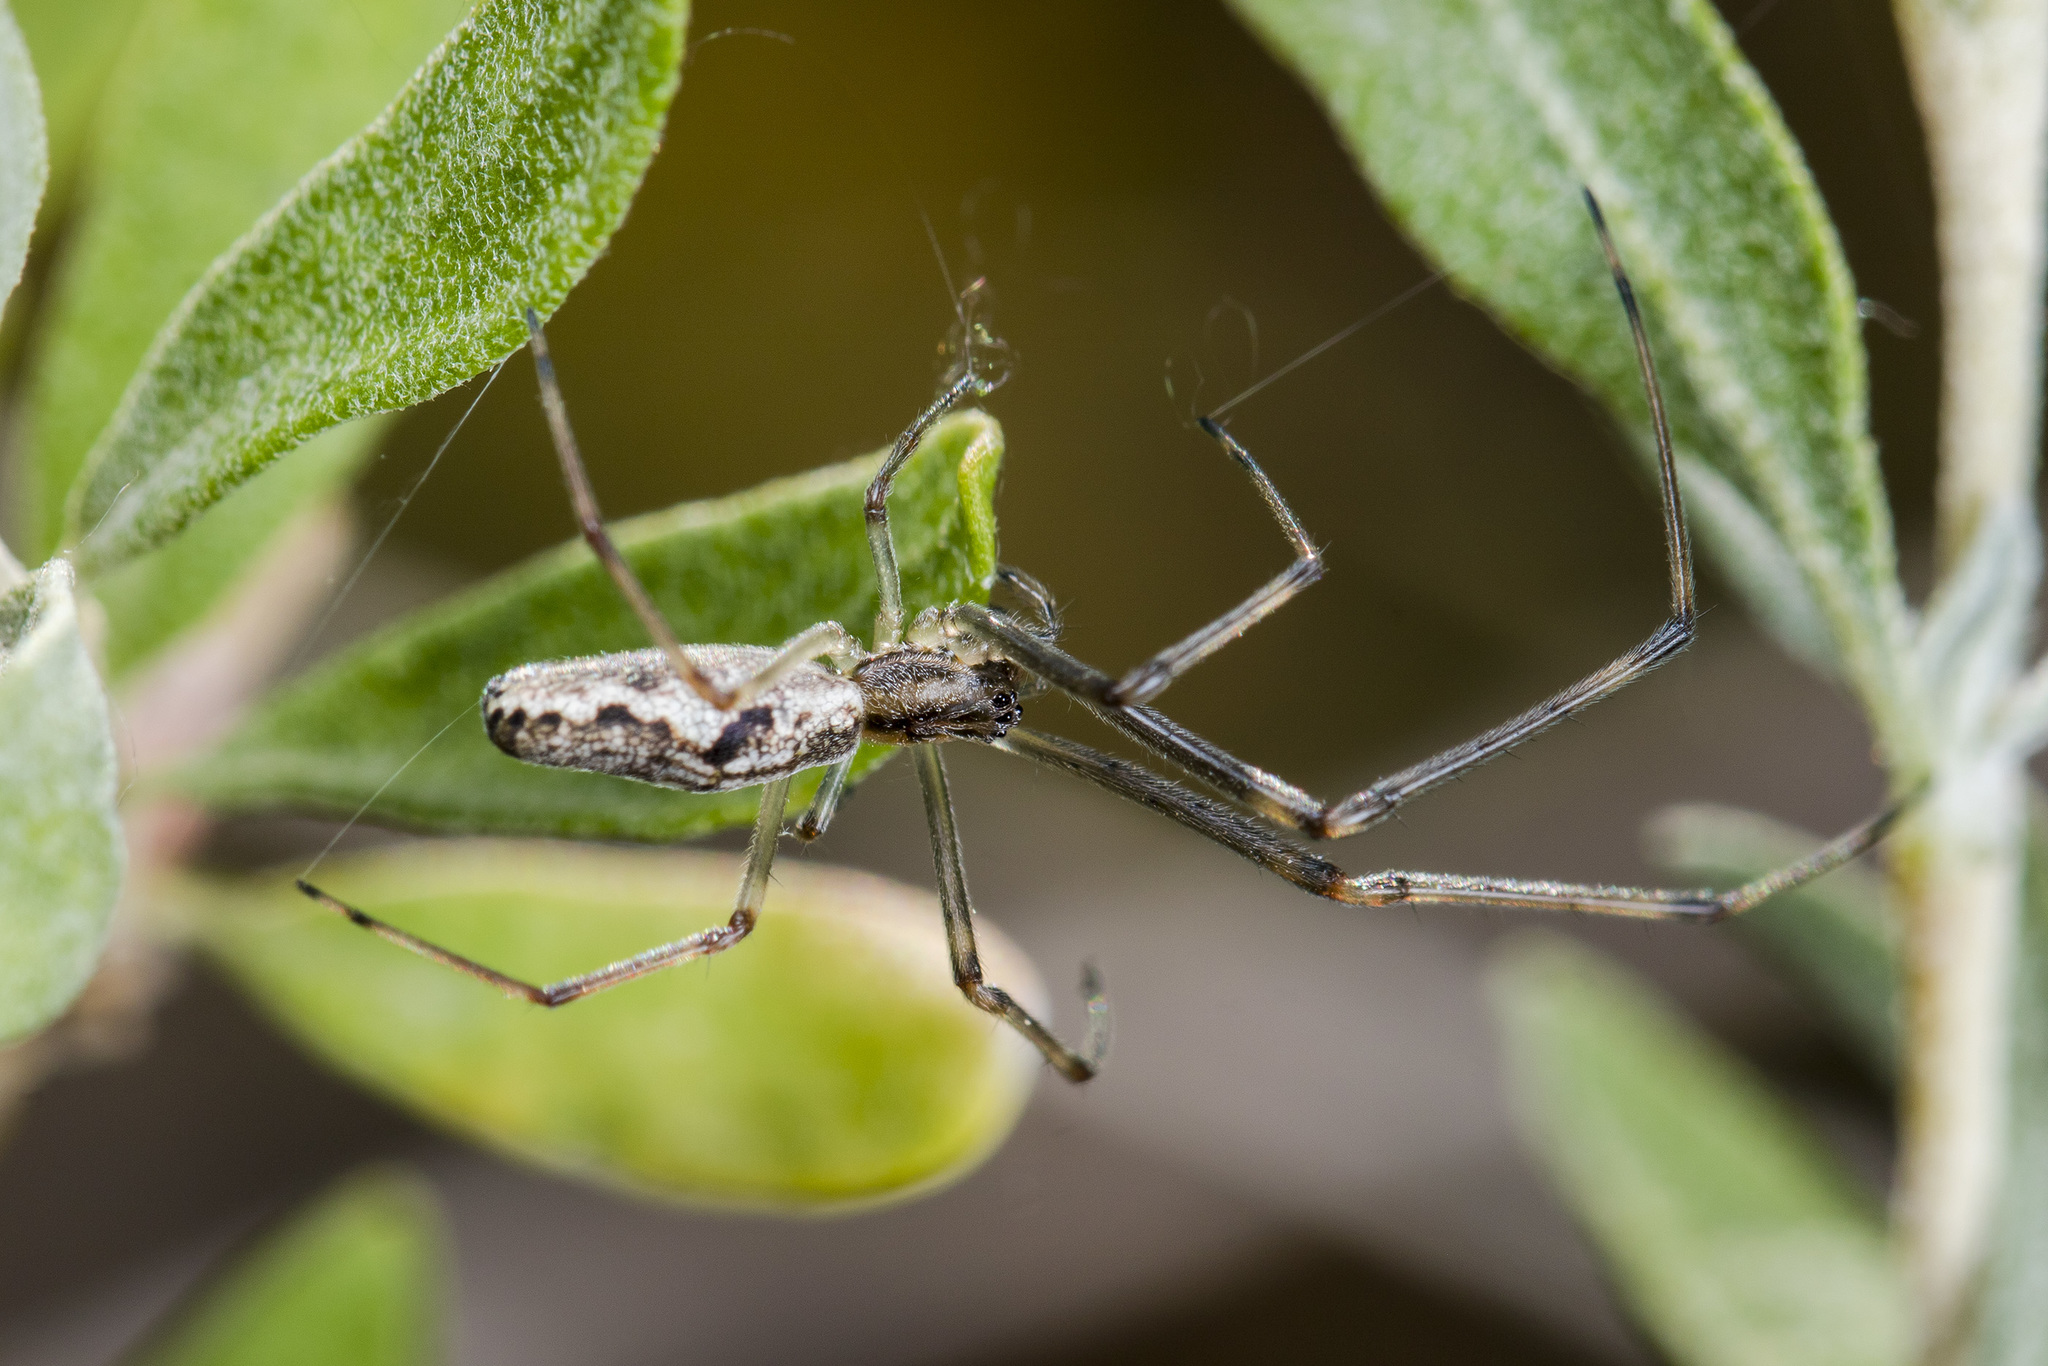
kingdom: Animalia
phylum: Arthropoda
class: Arachnida
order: Araneae
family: Tetragnathidae
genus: Tetragnatha
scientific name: Tetragnatha nigrita
